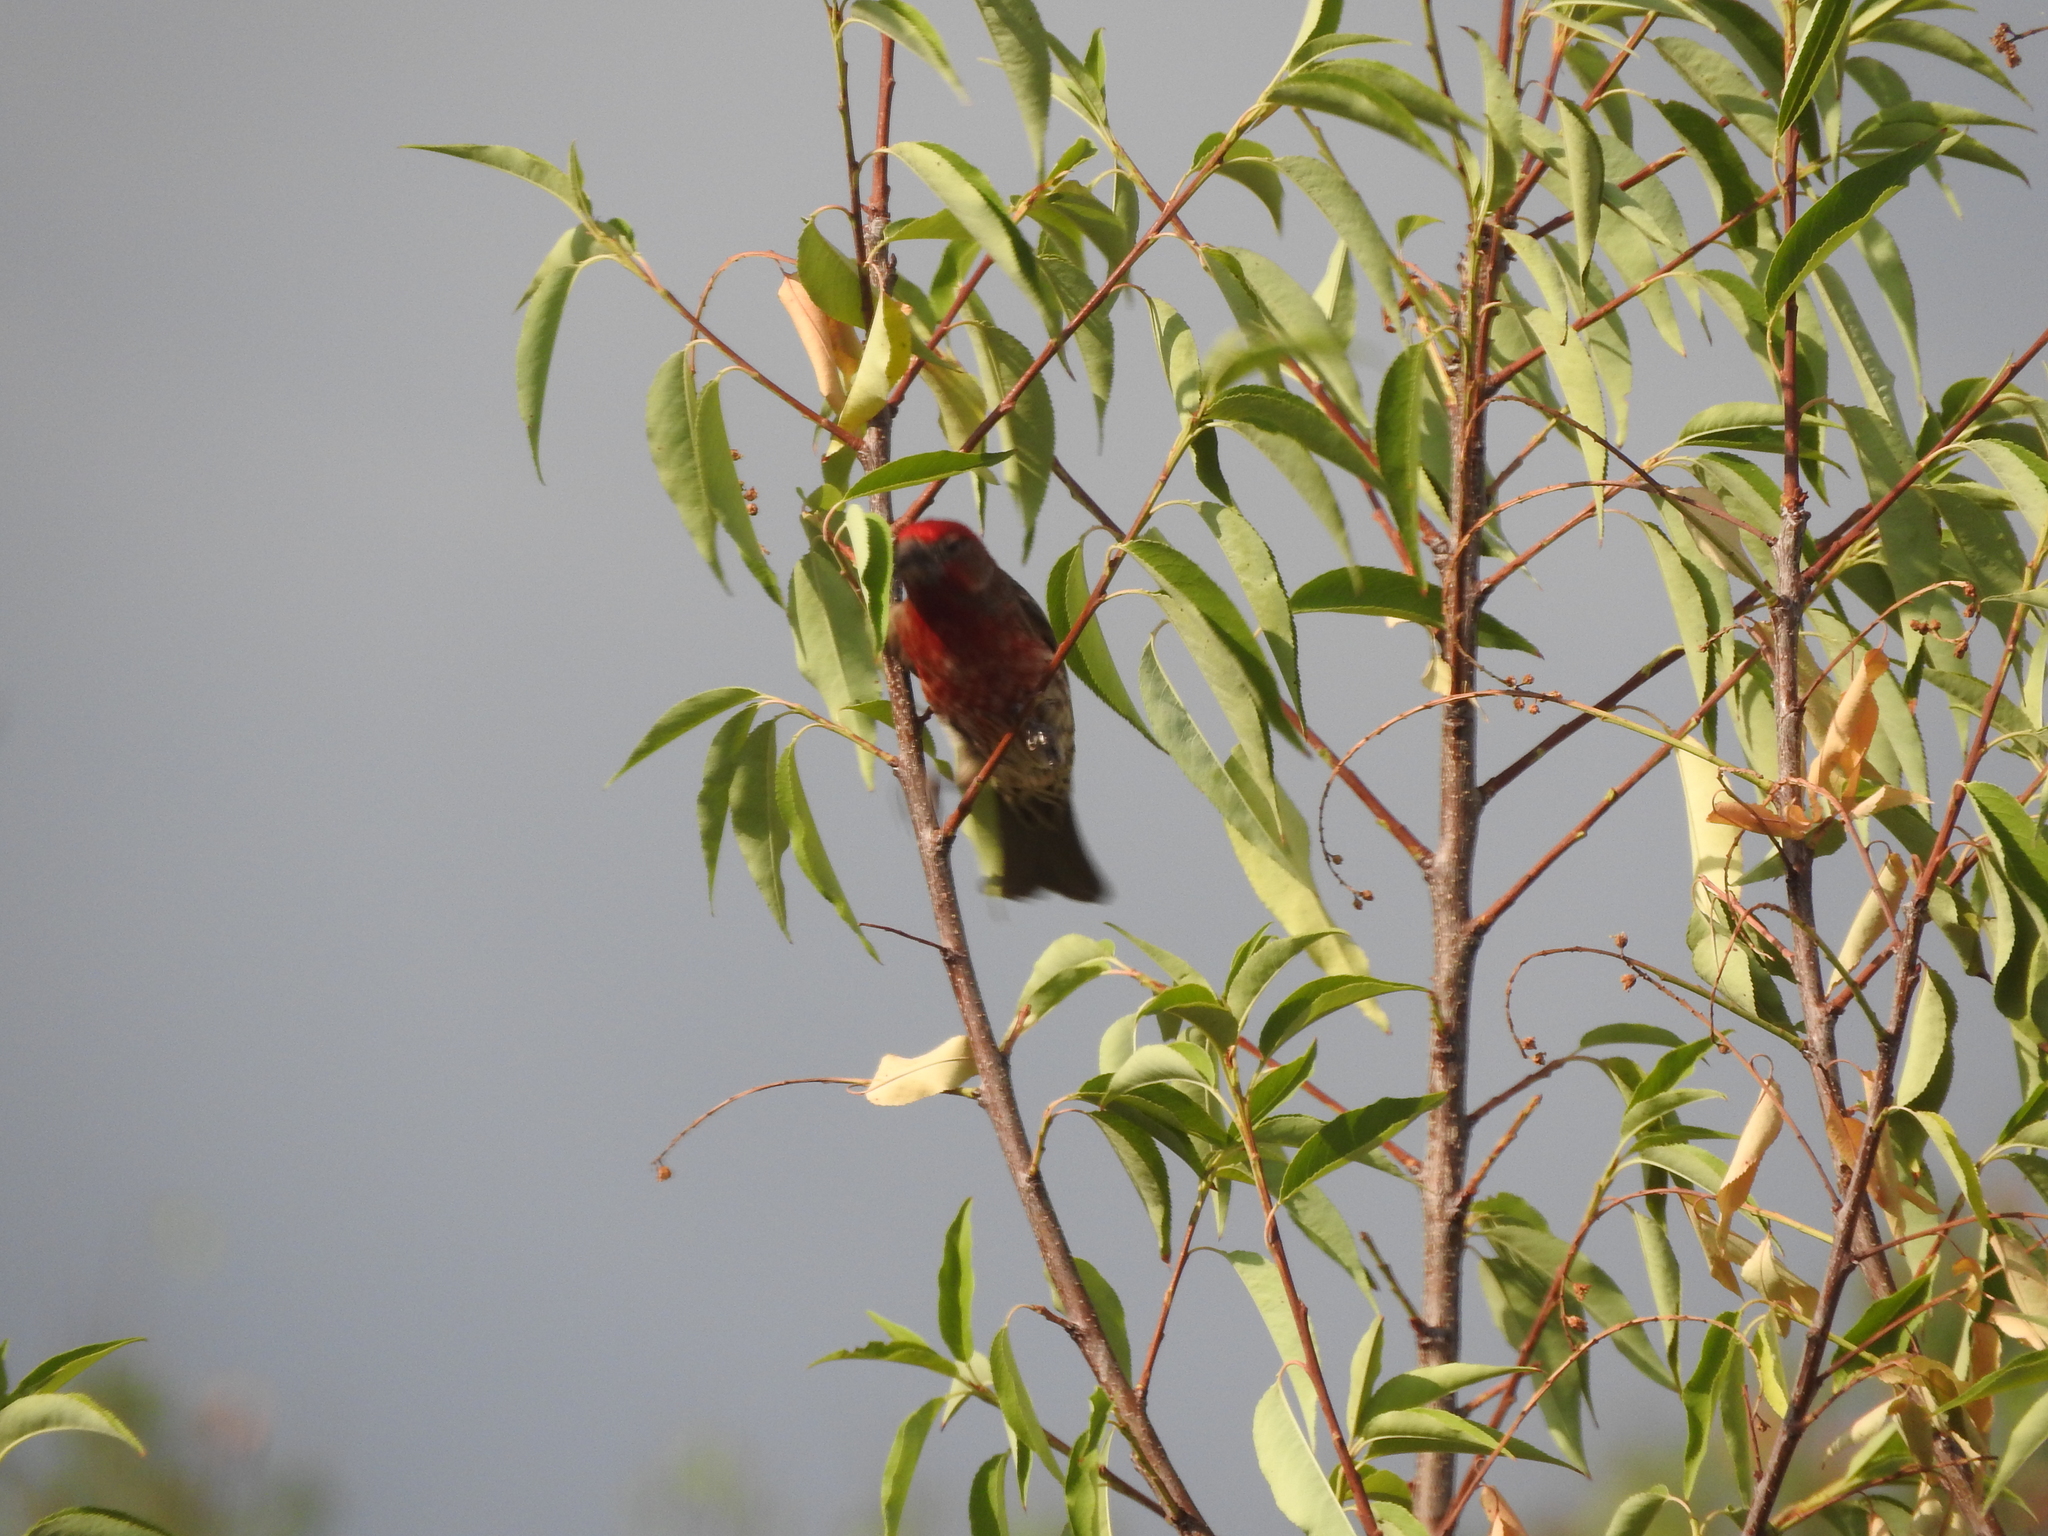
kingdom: Animalia
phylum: Chordata
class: Aves
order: Passeriformes
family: Fringillidae
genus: Haemorhous
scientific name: Haemorhous mexicanus
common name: House finch
